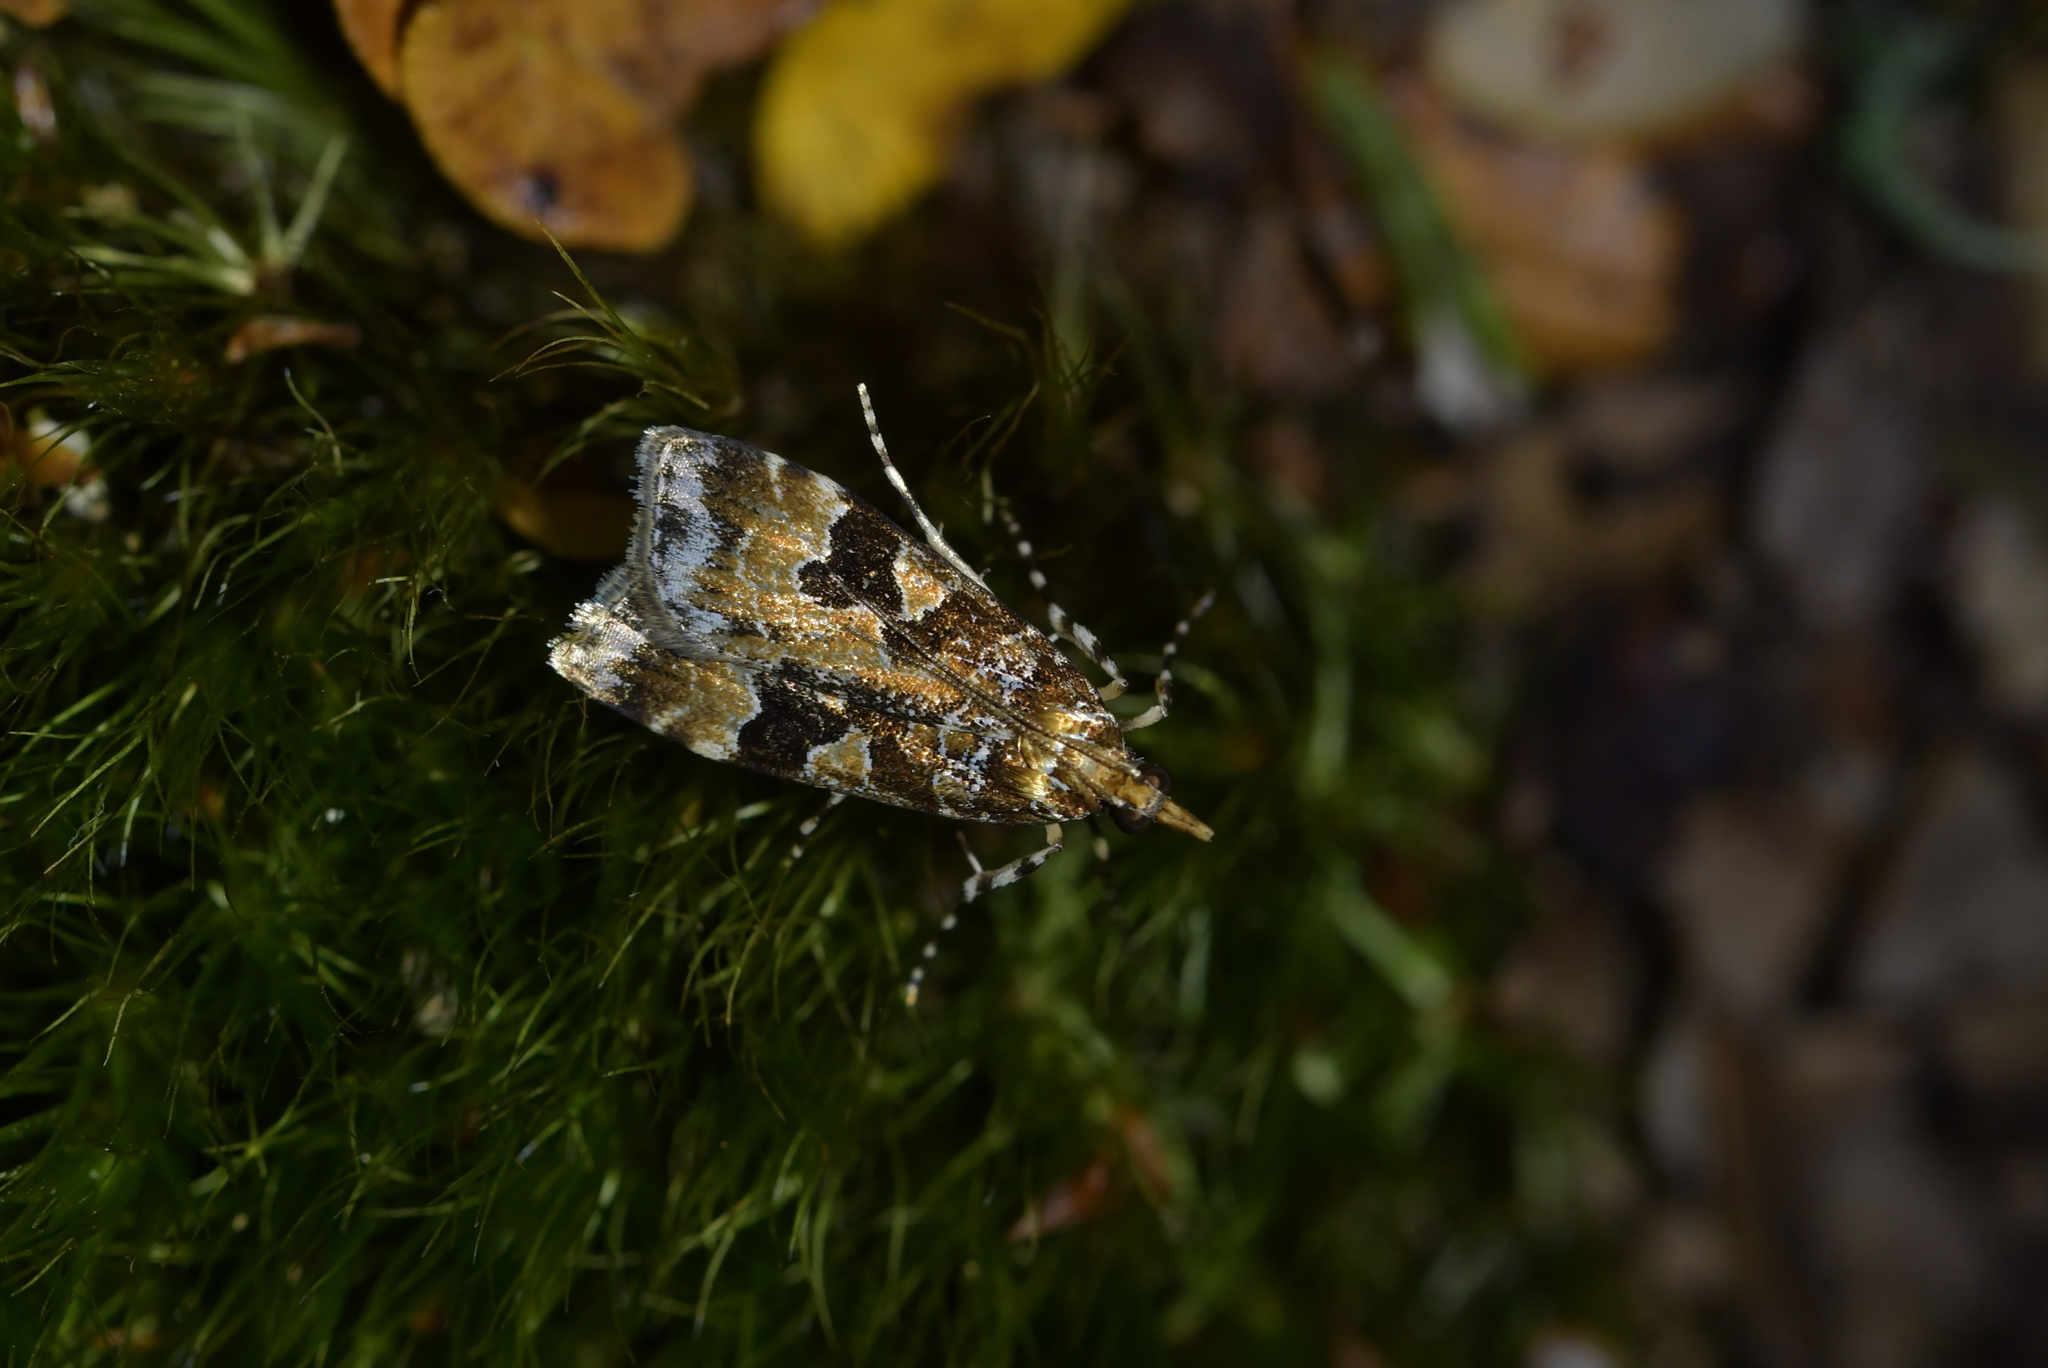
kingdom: Animalia
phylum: Arthropoda
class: Insecta
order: Lepidoptera
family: Crambidae
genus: Scoparia
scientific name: Scoparia ustimacula
